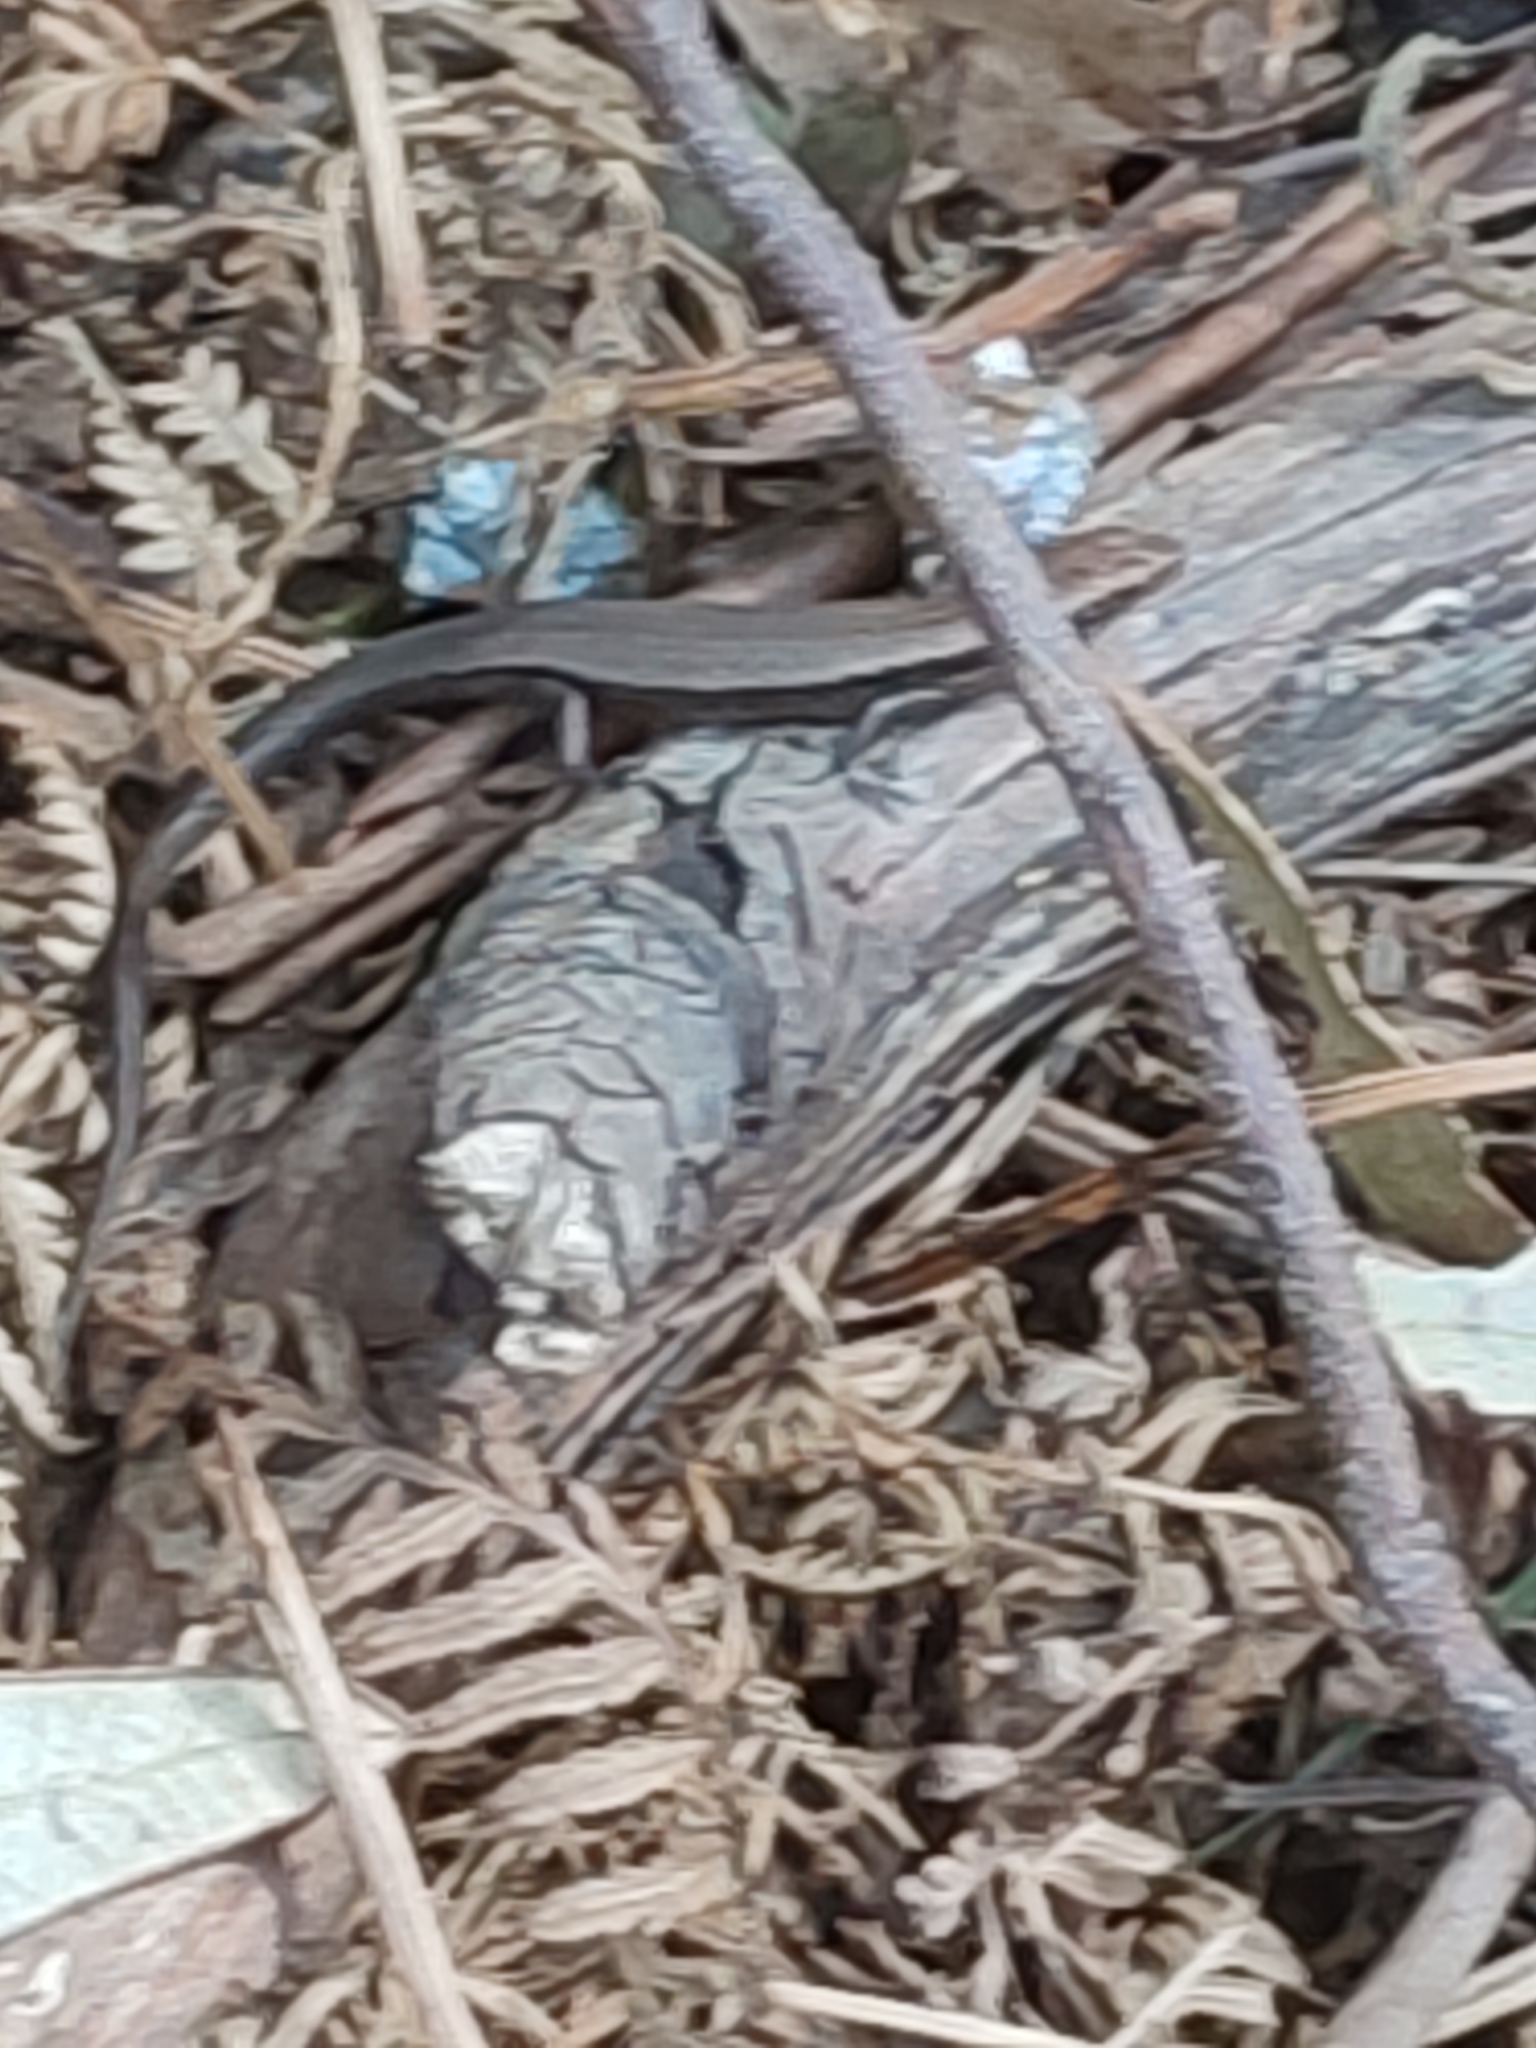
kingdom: Animalia
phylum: Chordata
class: Squamata
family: Scincidae
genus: Carinascincus
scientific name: Carinascincus metallicus
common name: Metallic cool-skink
